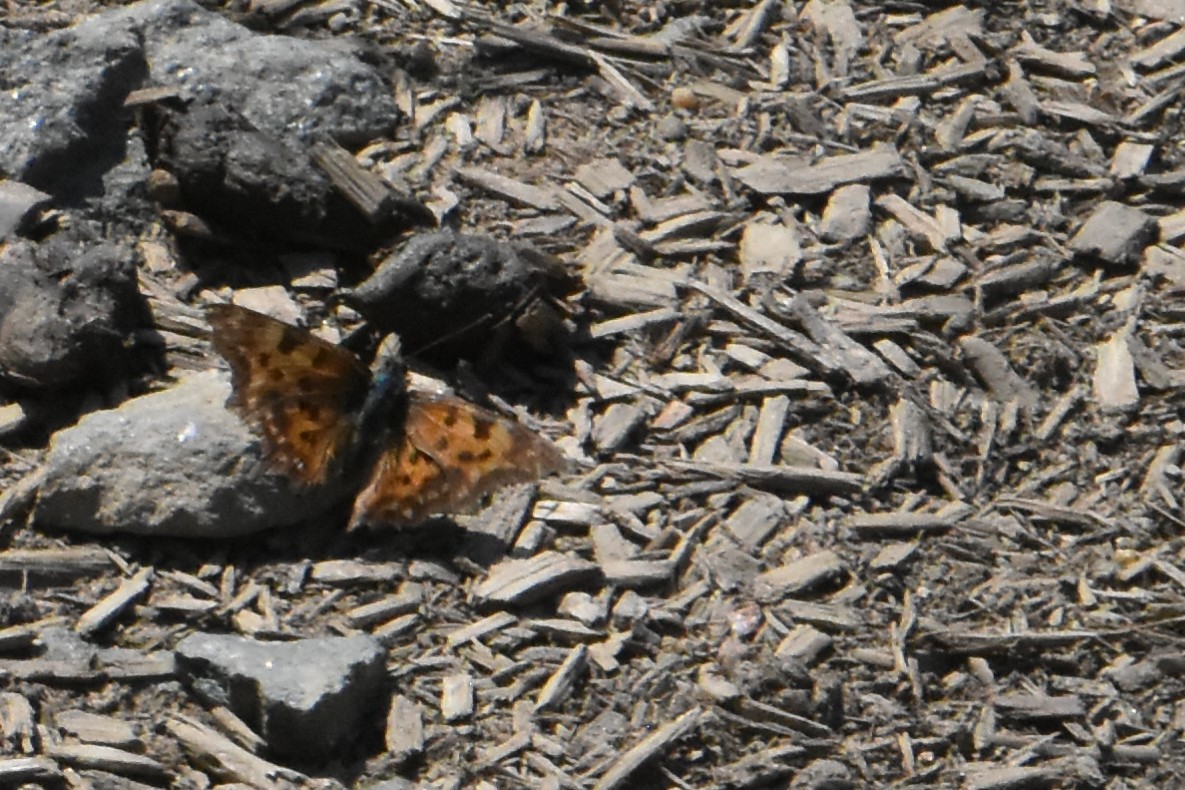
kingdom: Animalia
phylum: Arthropoda
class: Insecta
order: Lepidoptera
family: Nymphalidae
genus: Polygonia
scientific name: Polygonia c-album
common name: Comma
